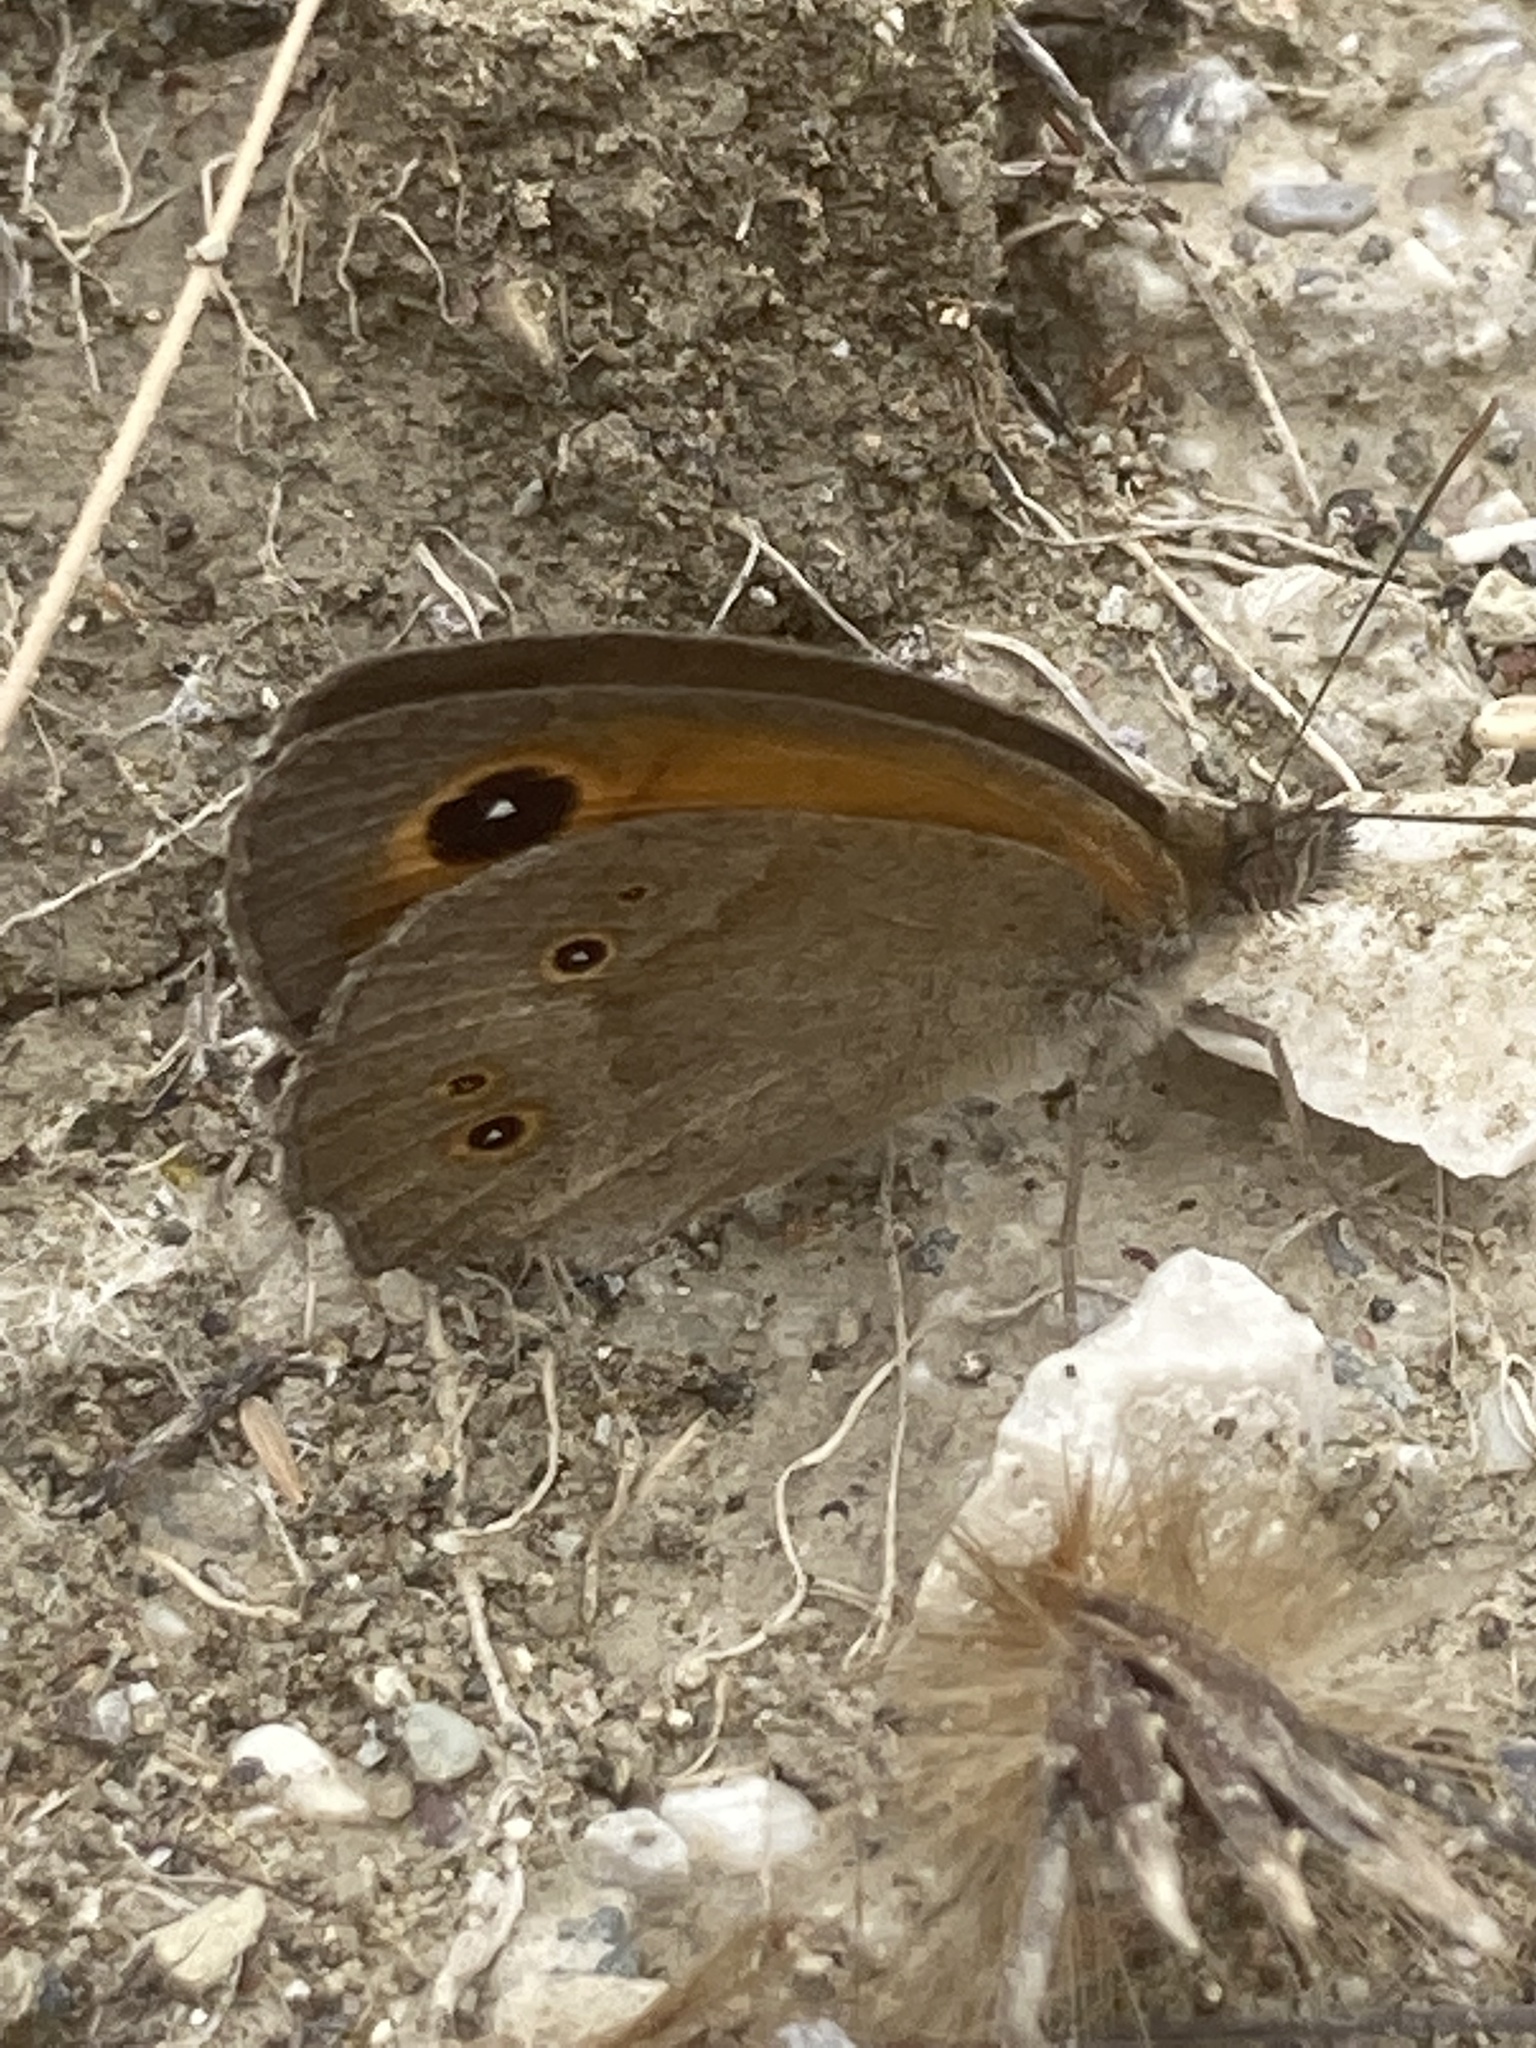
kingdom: Animalia
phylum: Arthropoda
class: Insecta
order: Lepidoptera
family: Nymphalidae
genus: Maniola
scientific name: Maniola telmessia
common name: Persian meadow brown
